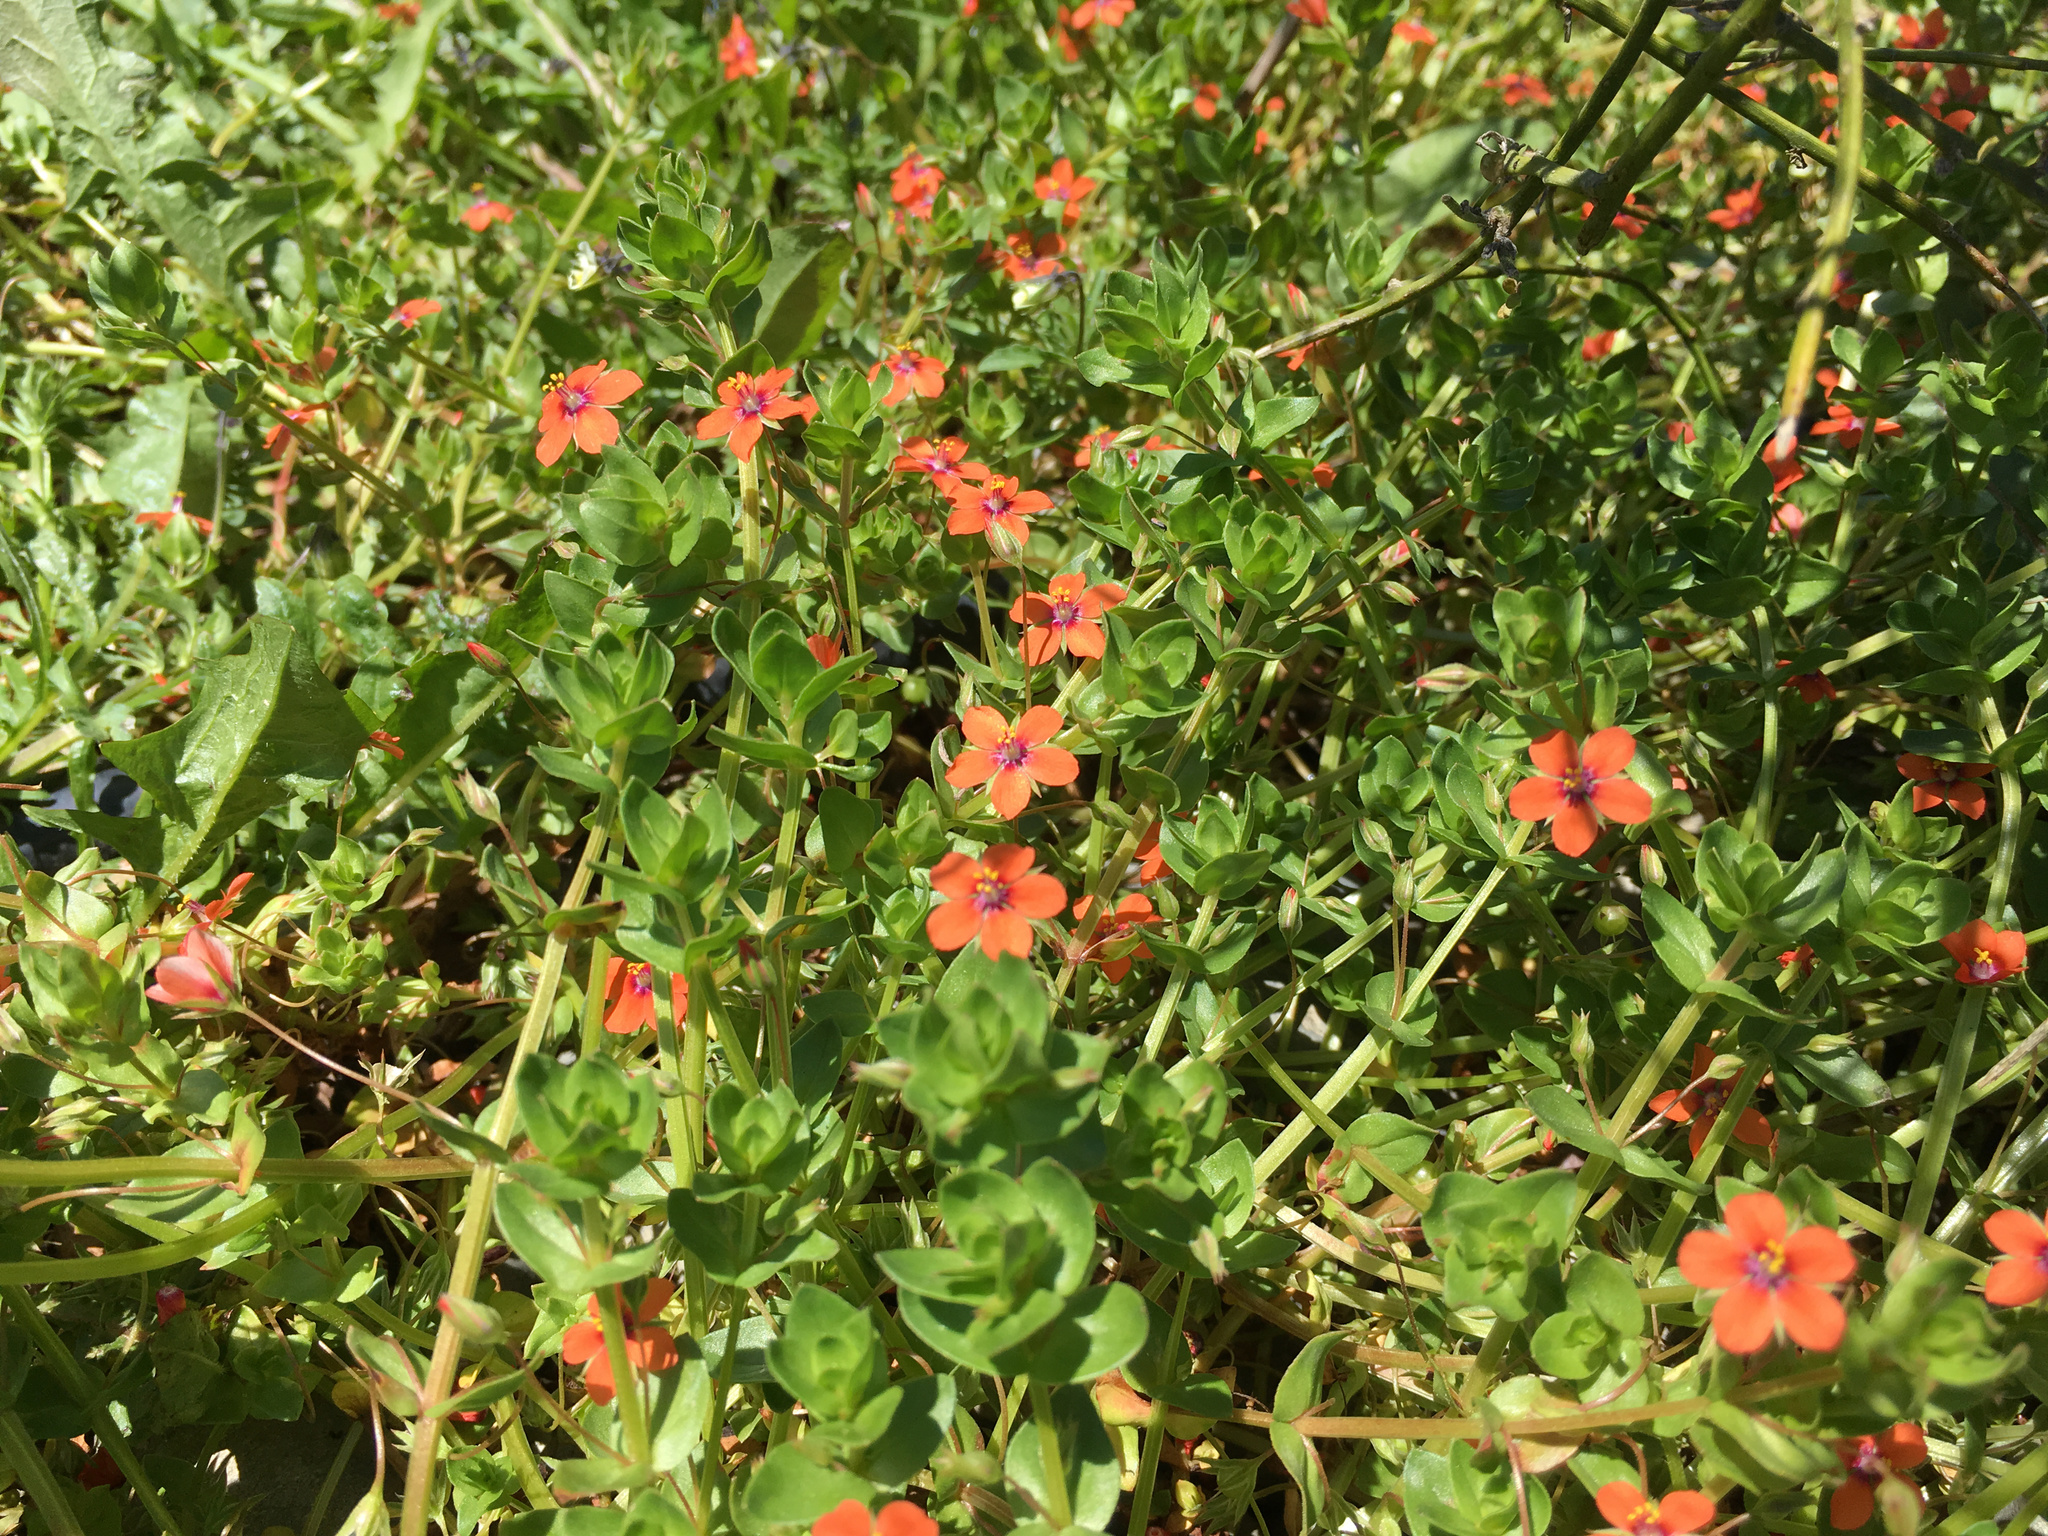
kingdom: Plantae
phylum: Tracheophyta
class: Magnoliopsida
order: Ericales
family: Primulaceae
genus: Lysimachia
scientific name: Lysimachia arvensis
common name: Scarlet pimpernel
